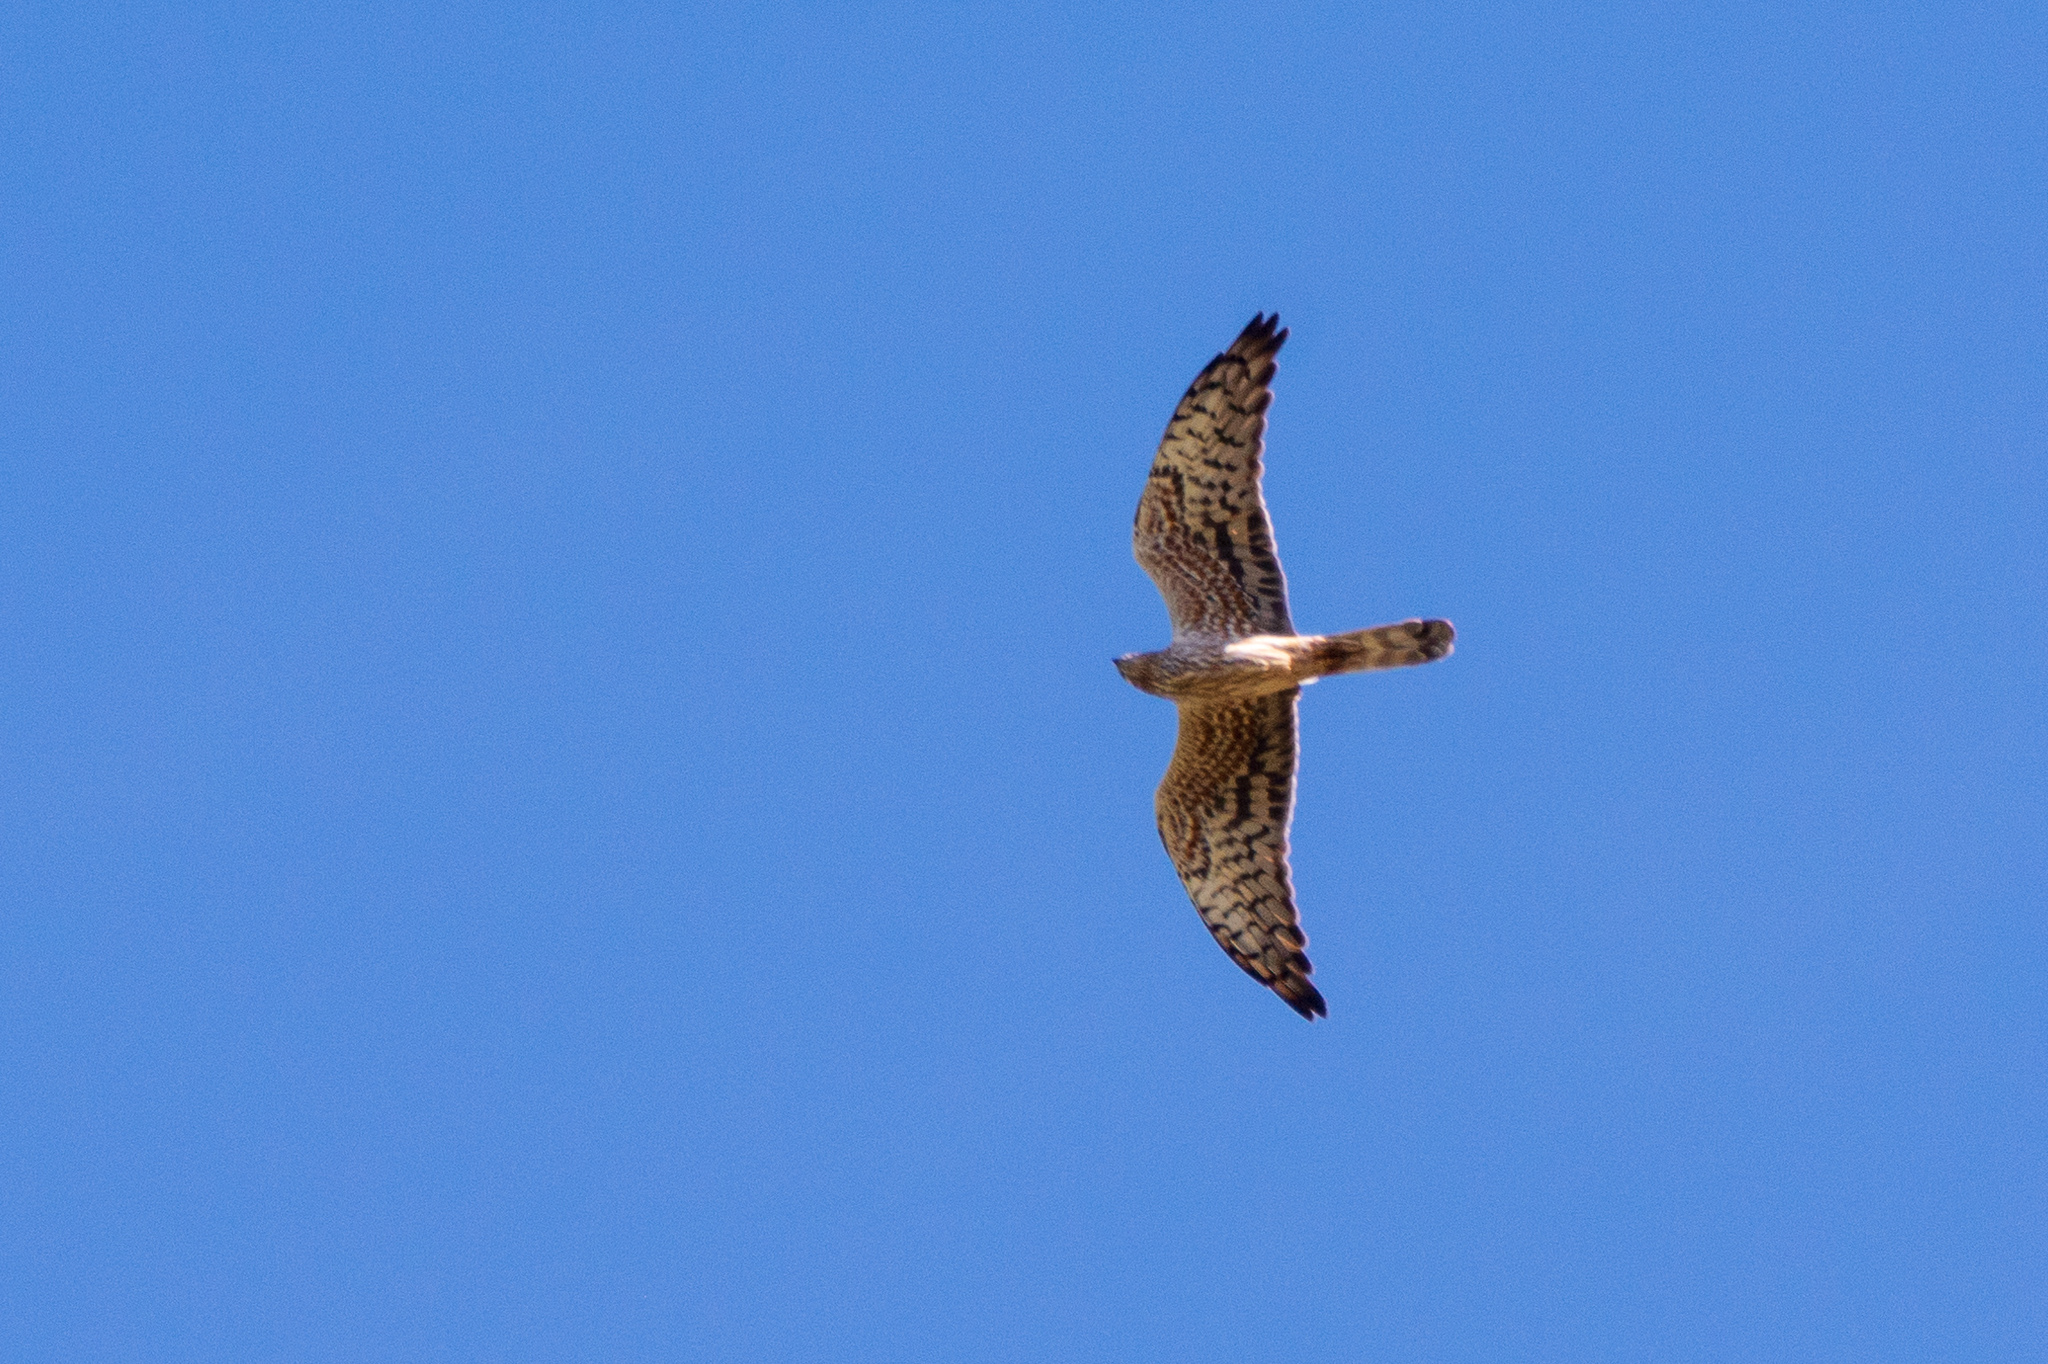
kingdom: Animalia
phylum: Chordata
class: Aves
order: Accipitriformes
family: Accipitridae
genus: Circus
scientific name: Circus pygargus
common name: Montagu's harrier
